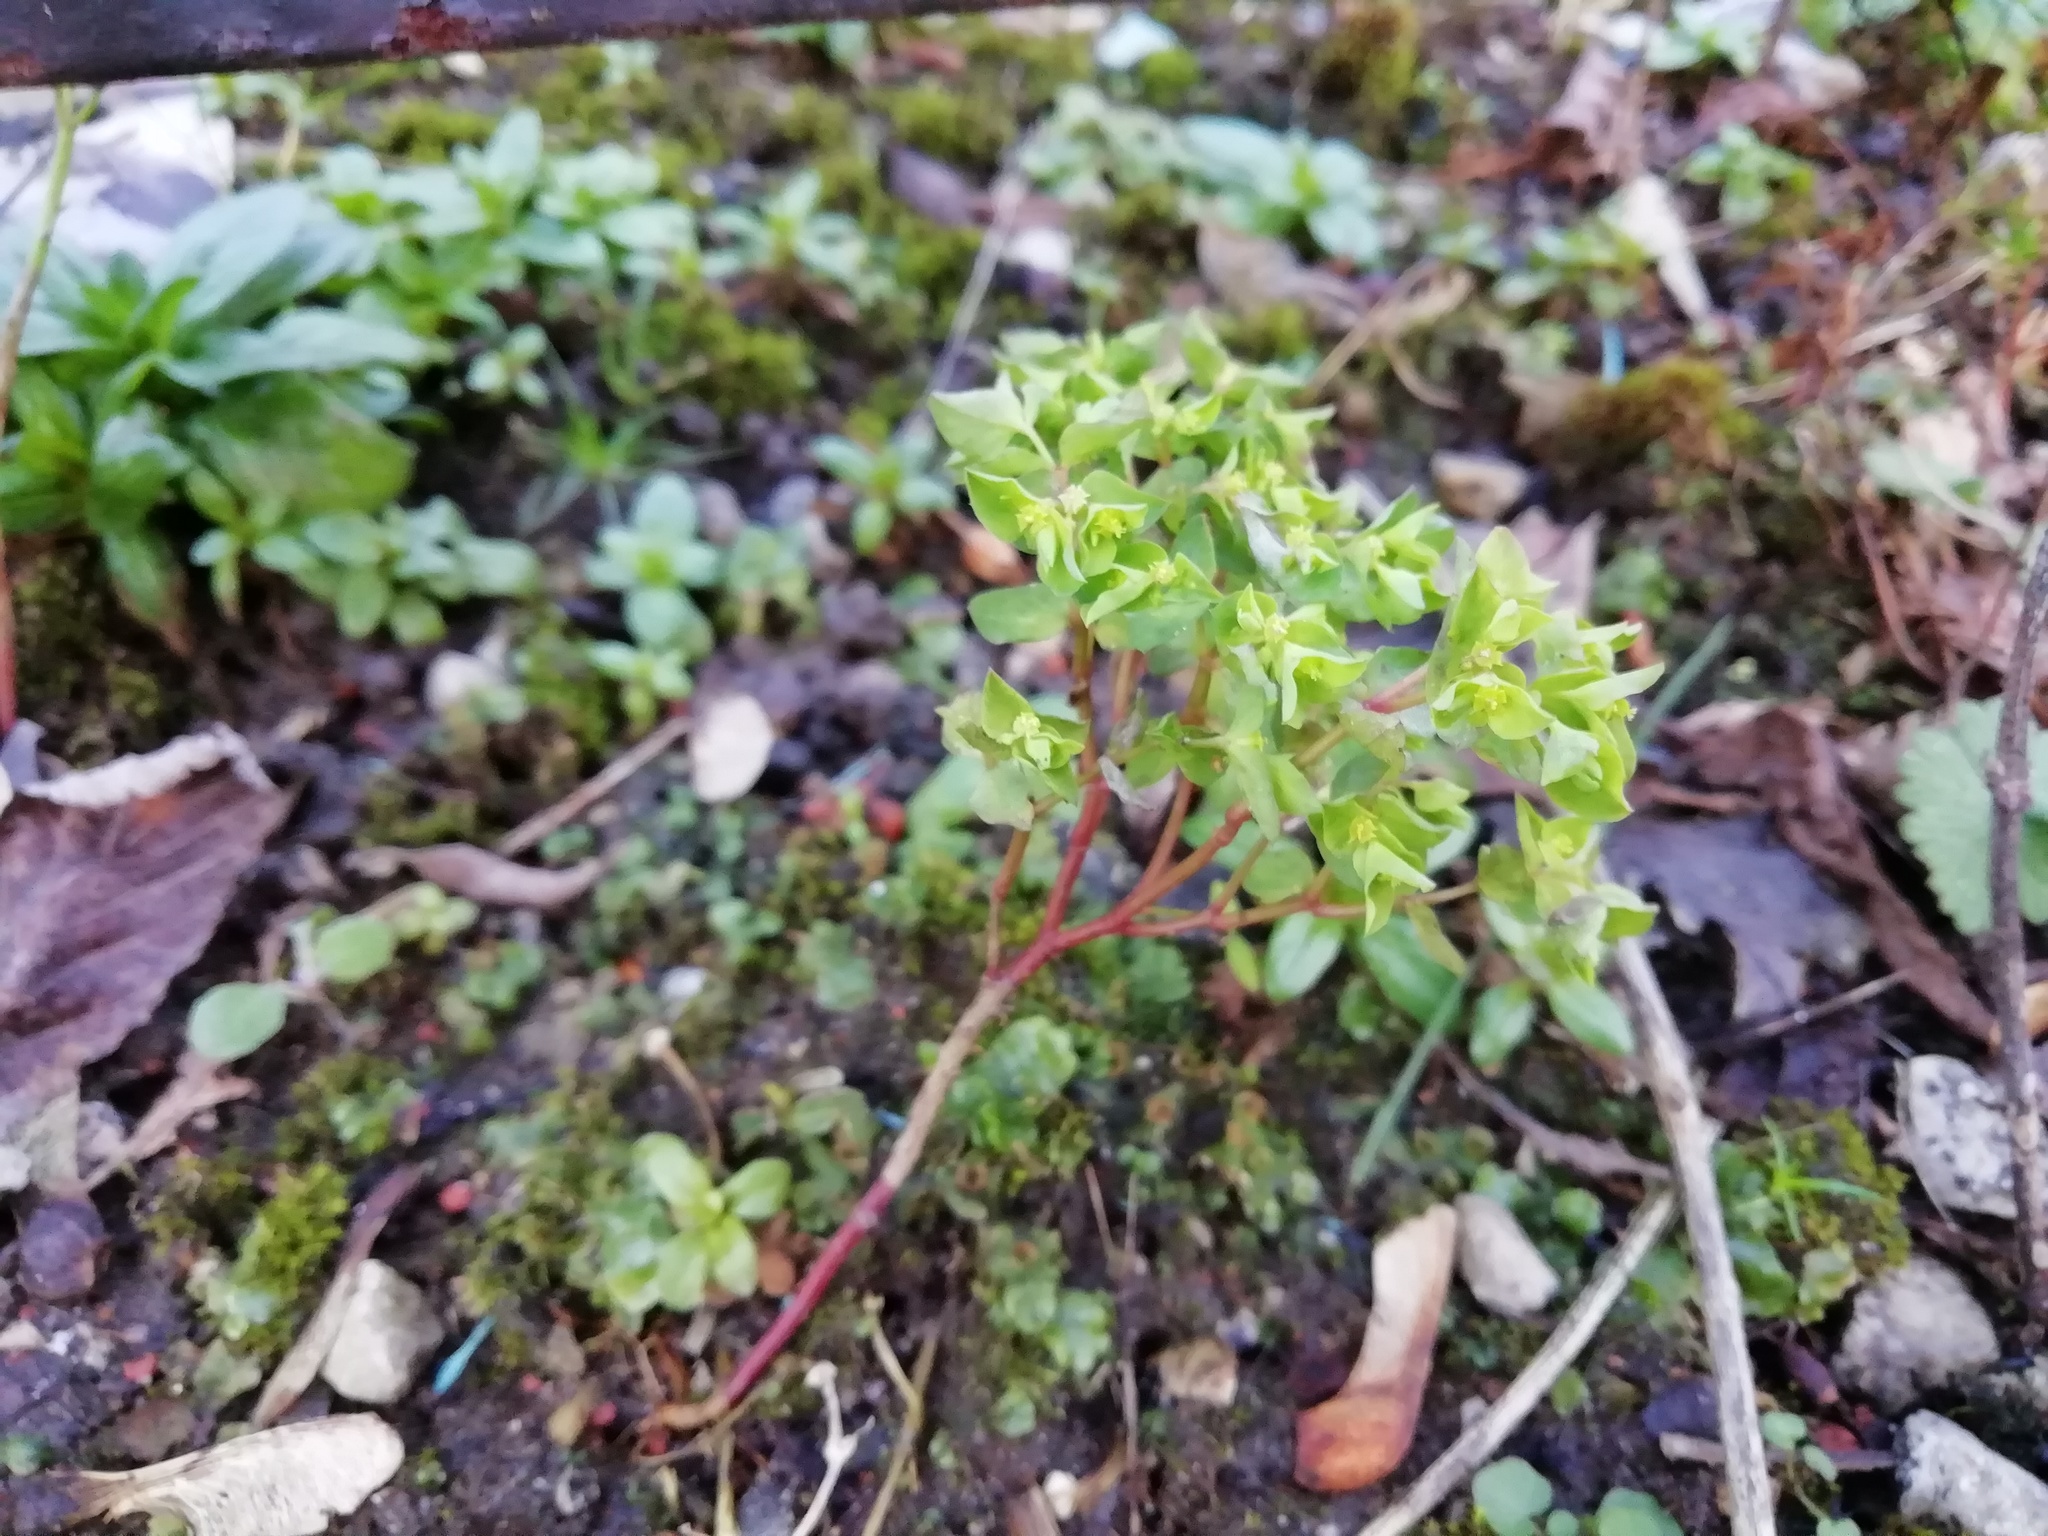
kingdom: Plantae
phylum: Tracheophyta
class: Magnoliopsida
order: Malpighiales
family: Euphorbiaceae
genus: Euphorbia
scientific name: Euphorbia peplus
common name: Petty spurge
